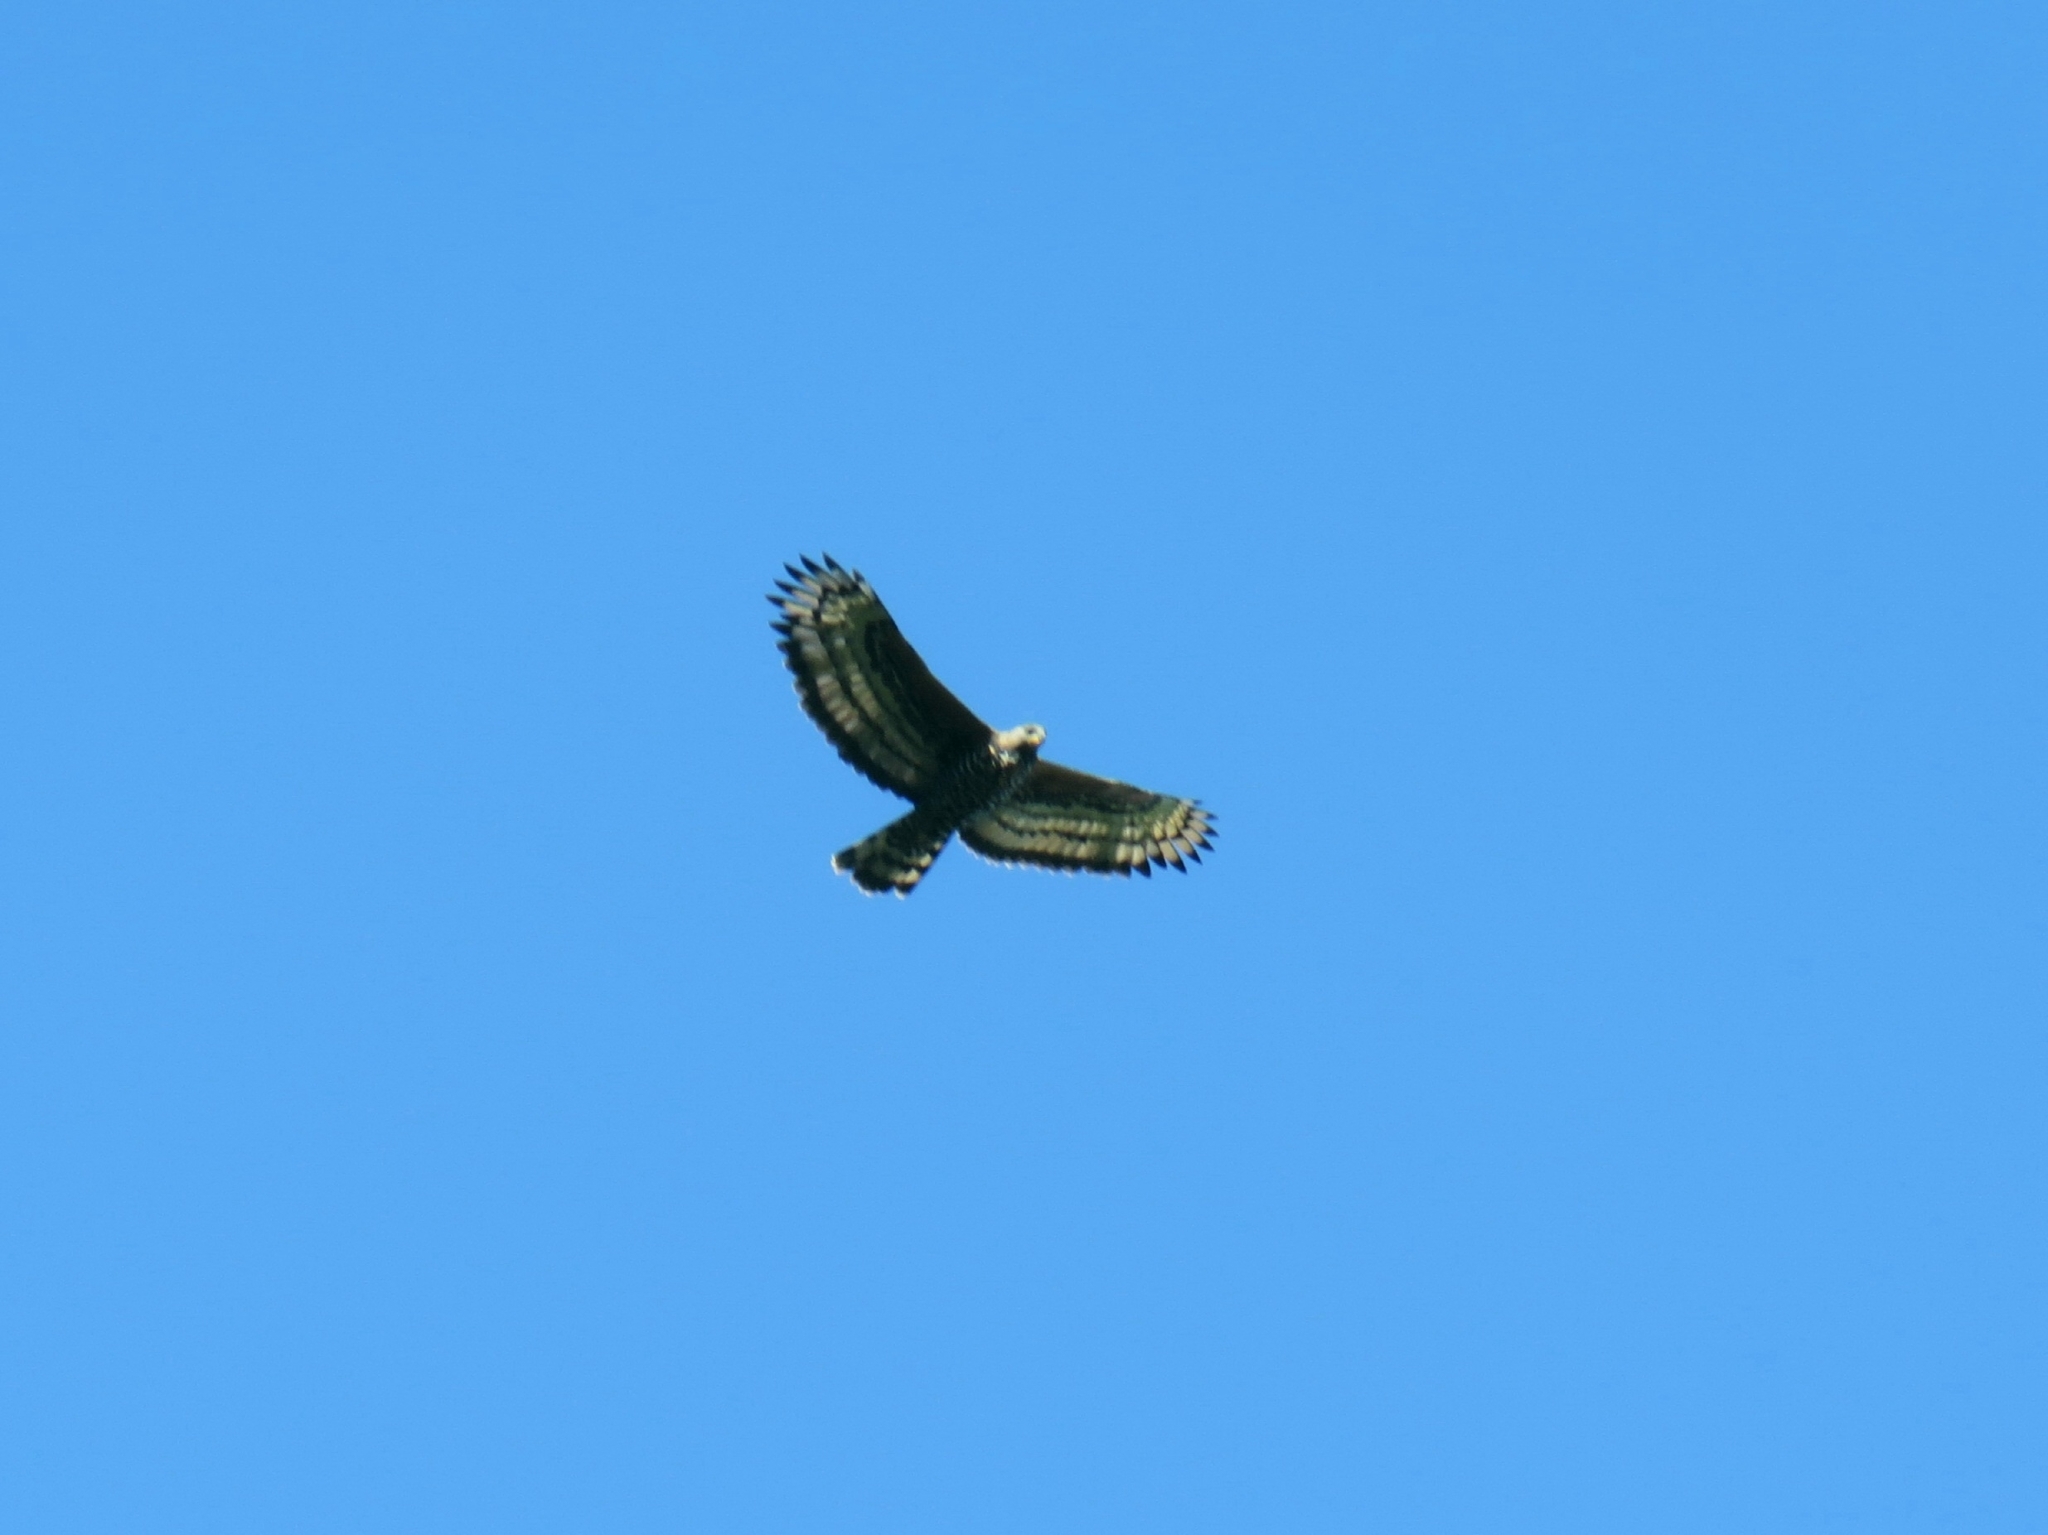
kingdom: Animalia
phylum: Chordata
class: Aves
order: Accipitriformes
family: Accipitridae
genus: Stephanoaetus
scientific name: Stephanoaetus coronatus
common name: Crowned eagle
